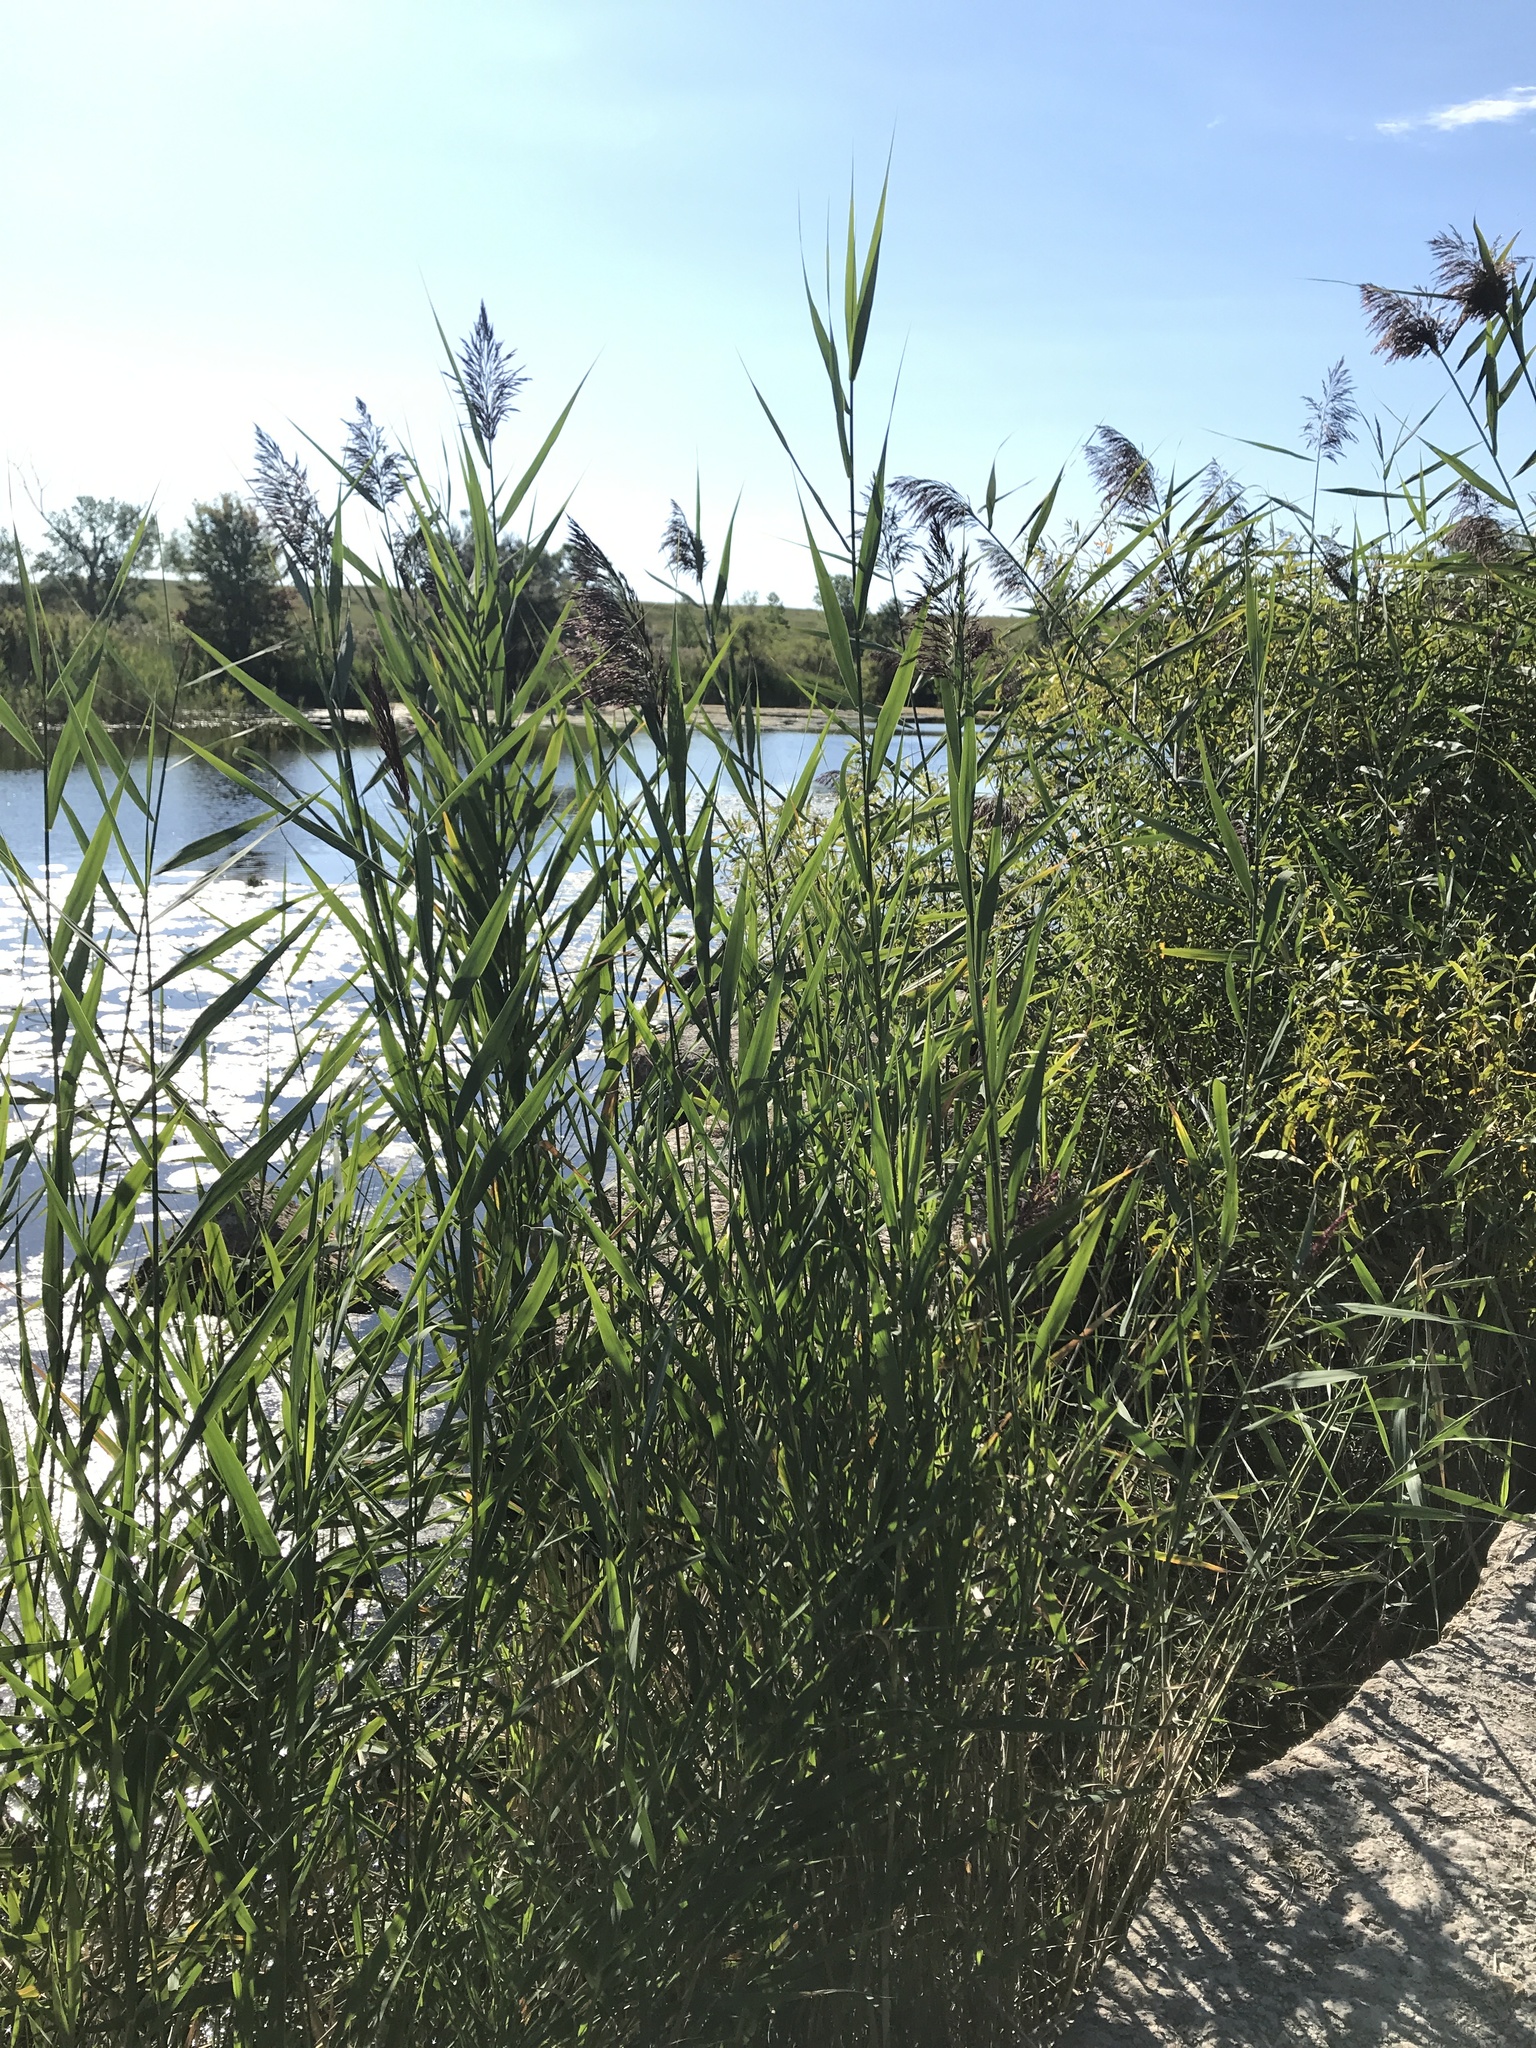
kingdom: Plantae
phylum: Tracheophyta
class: Liliopsida
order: Poales
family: Poaceae
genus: Phragmites
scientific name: Phragmites australis
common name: Common reed
